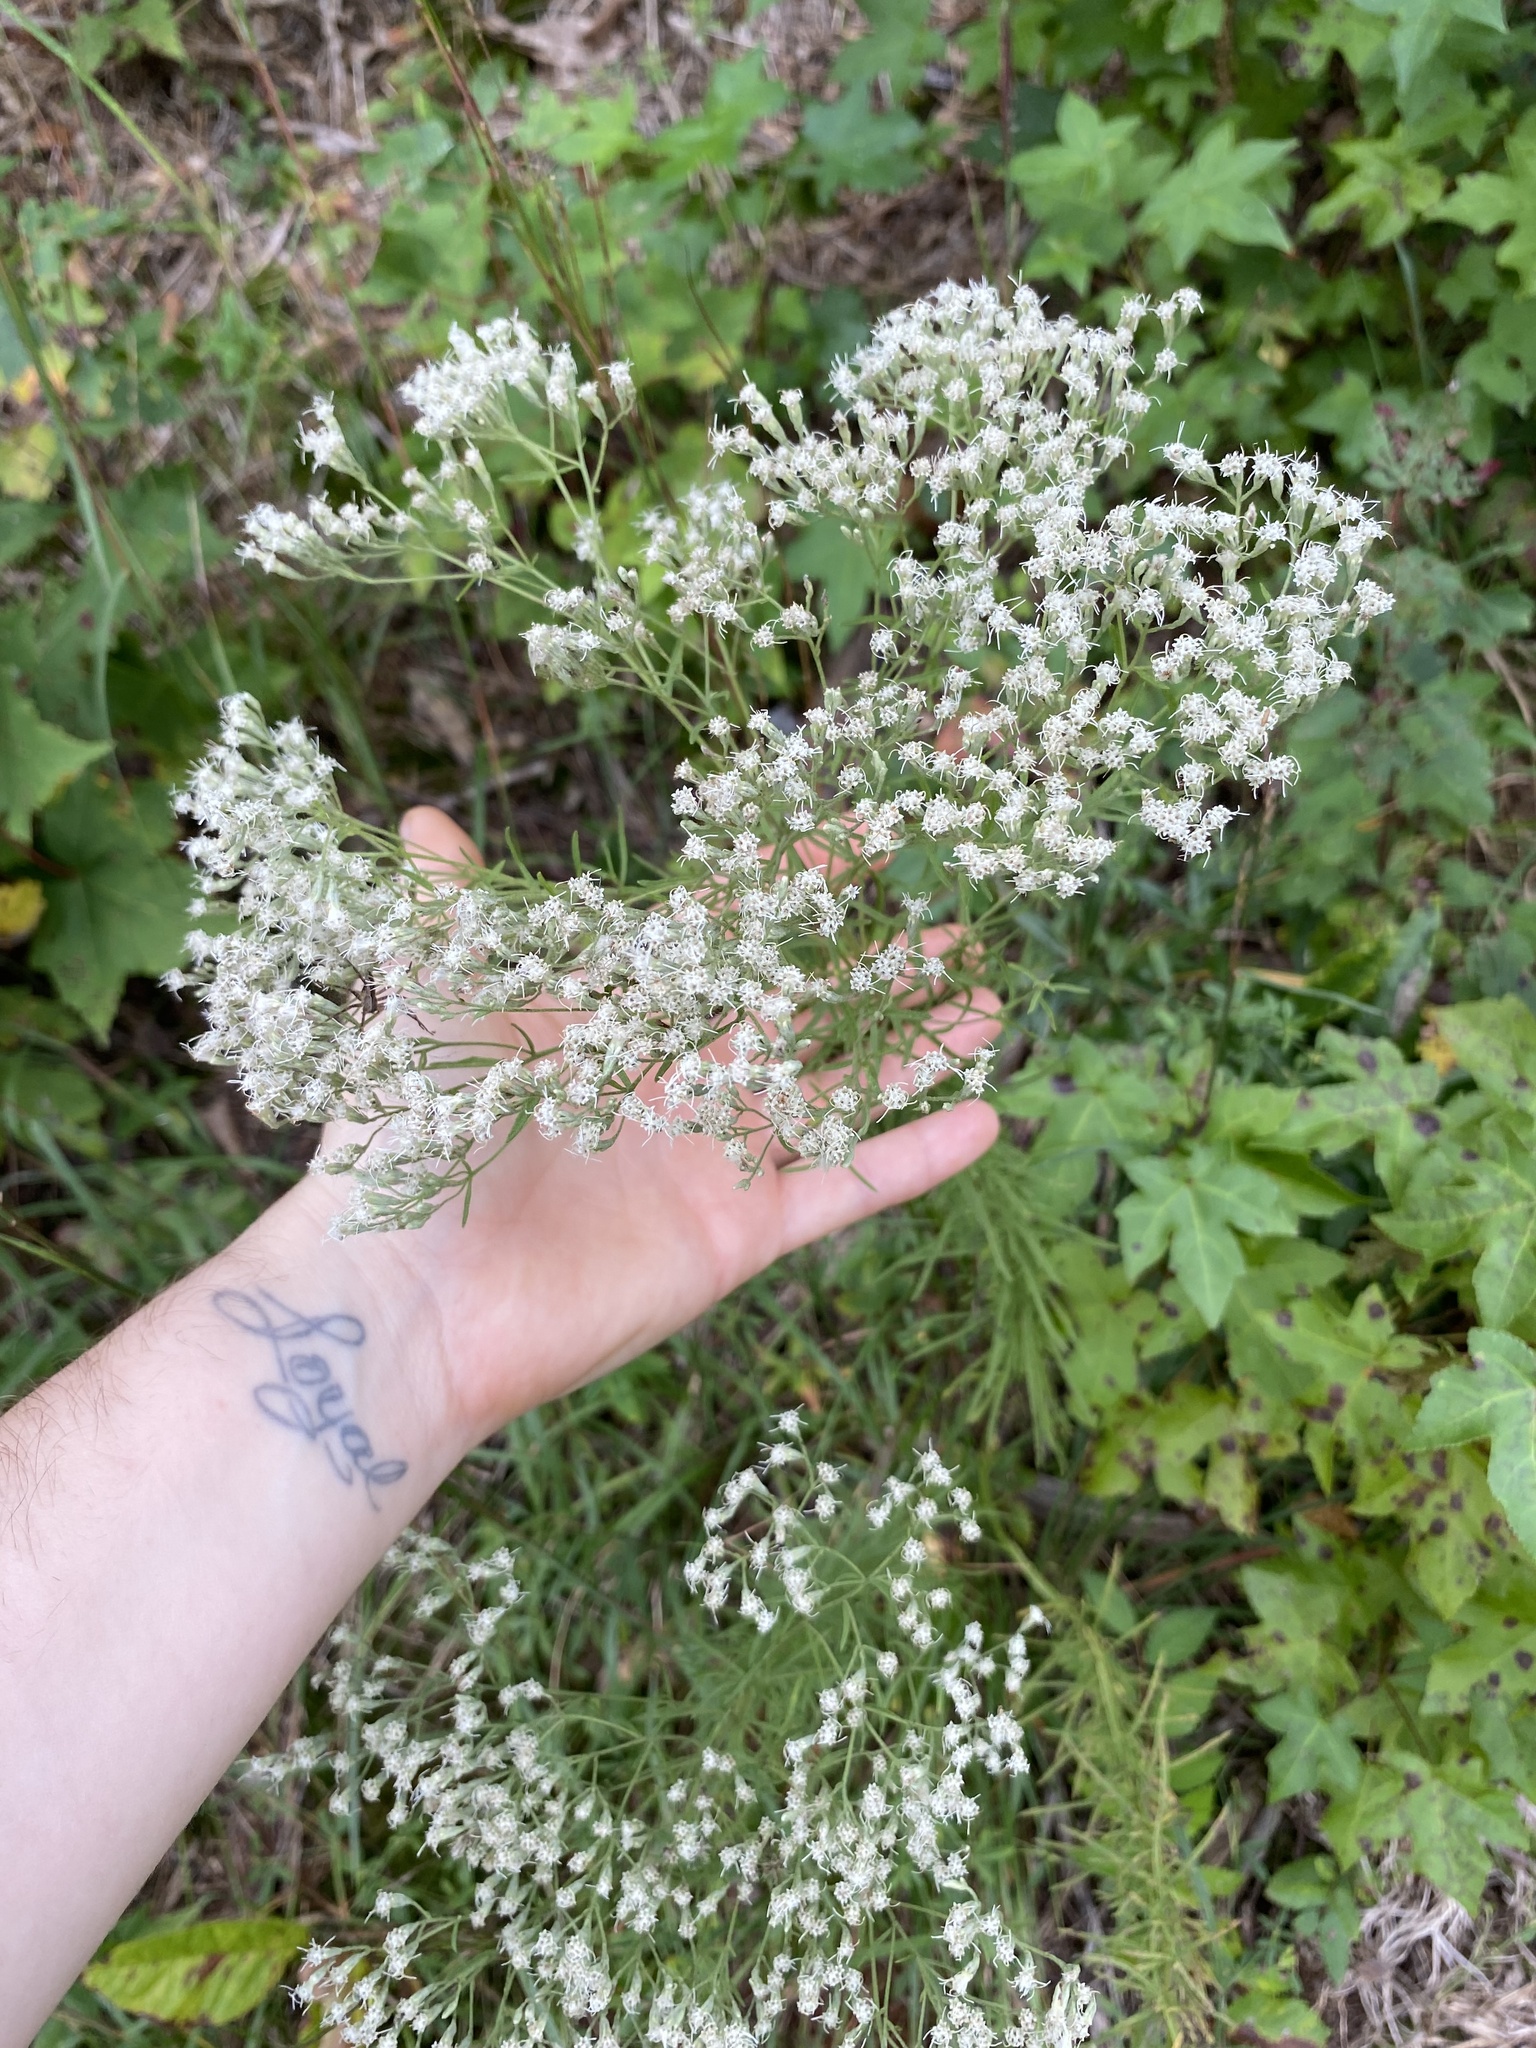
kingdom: Plantae
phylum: Tracheophyta
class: Magnoliopsida
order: Asterales
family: Asteraceae
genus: Eupatorium
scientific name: Eupatorium hyssopifolium
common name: Hyssop-leaf thoroughwort
